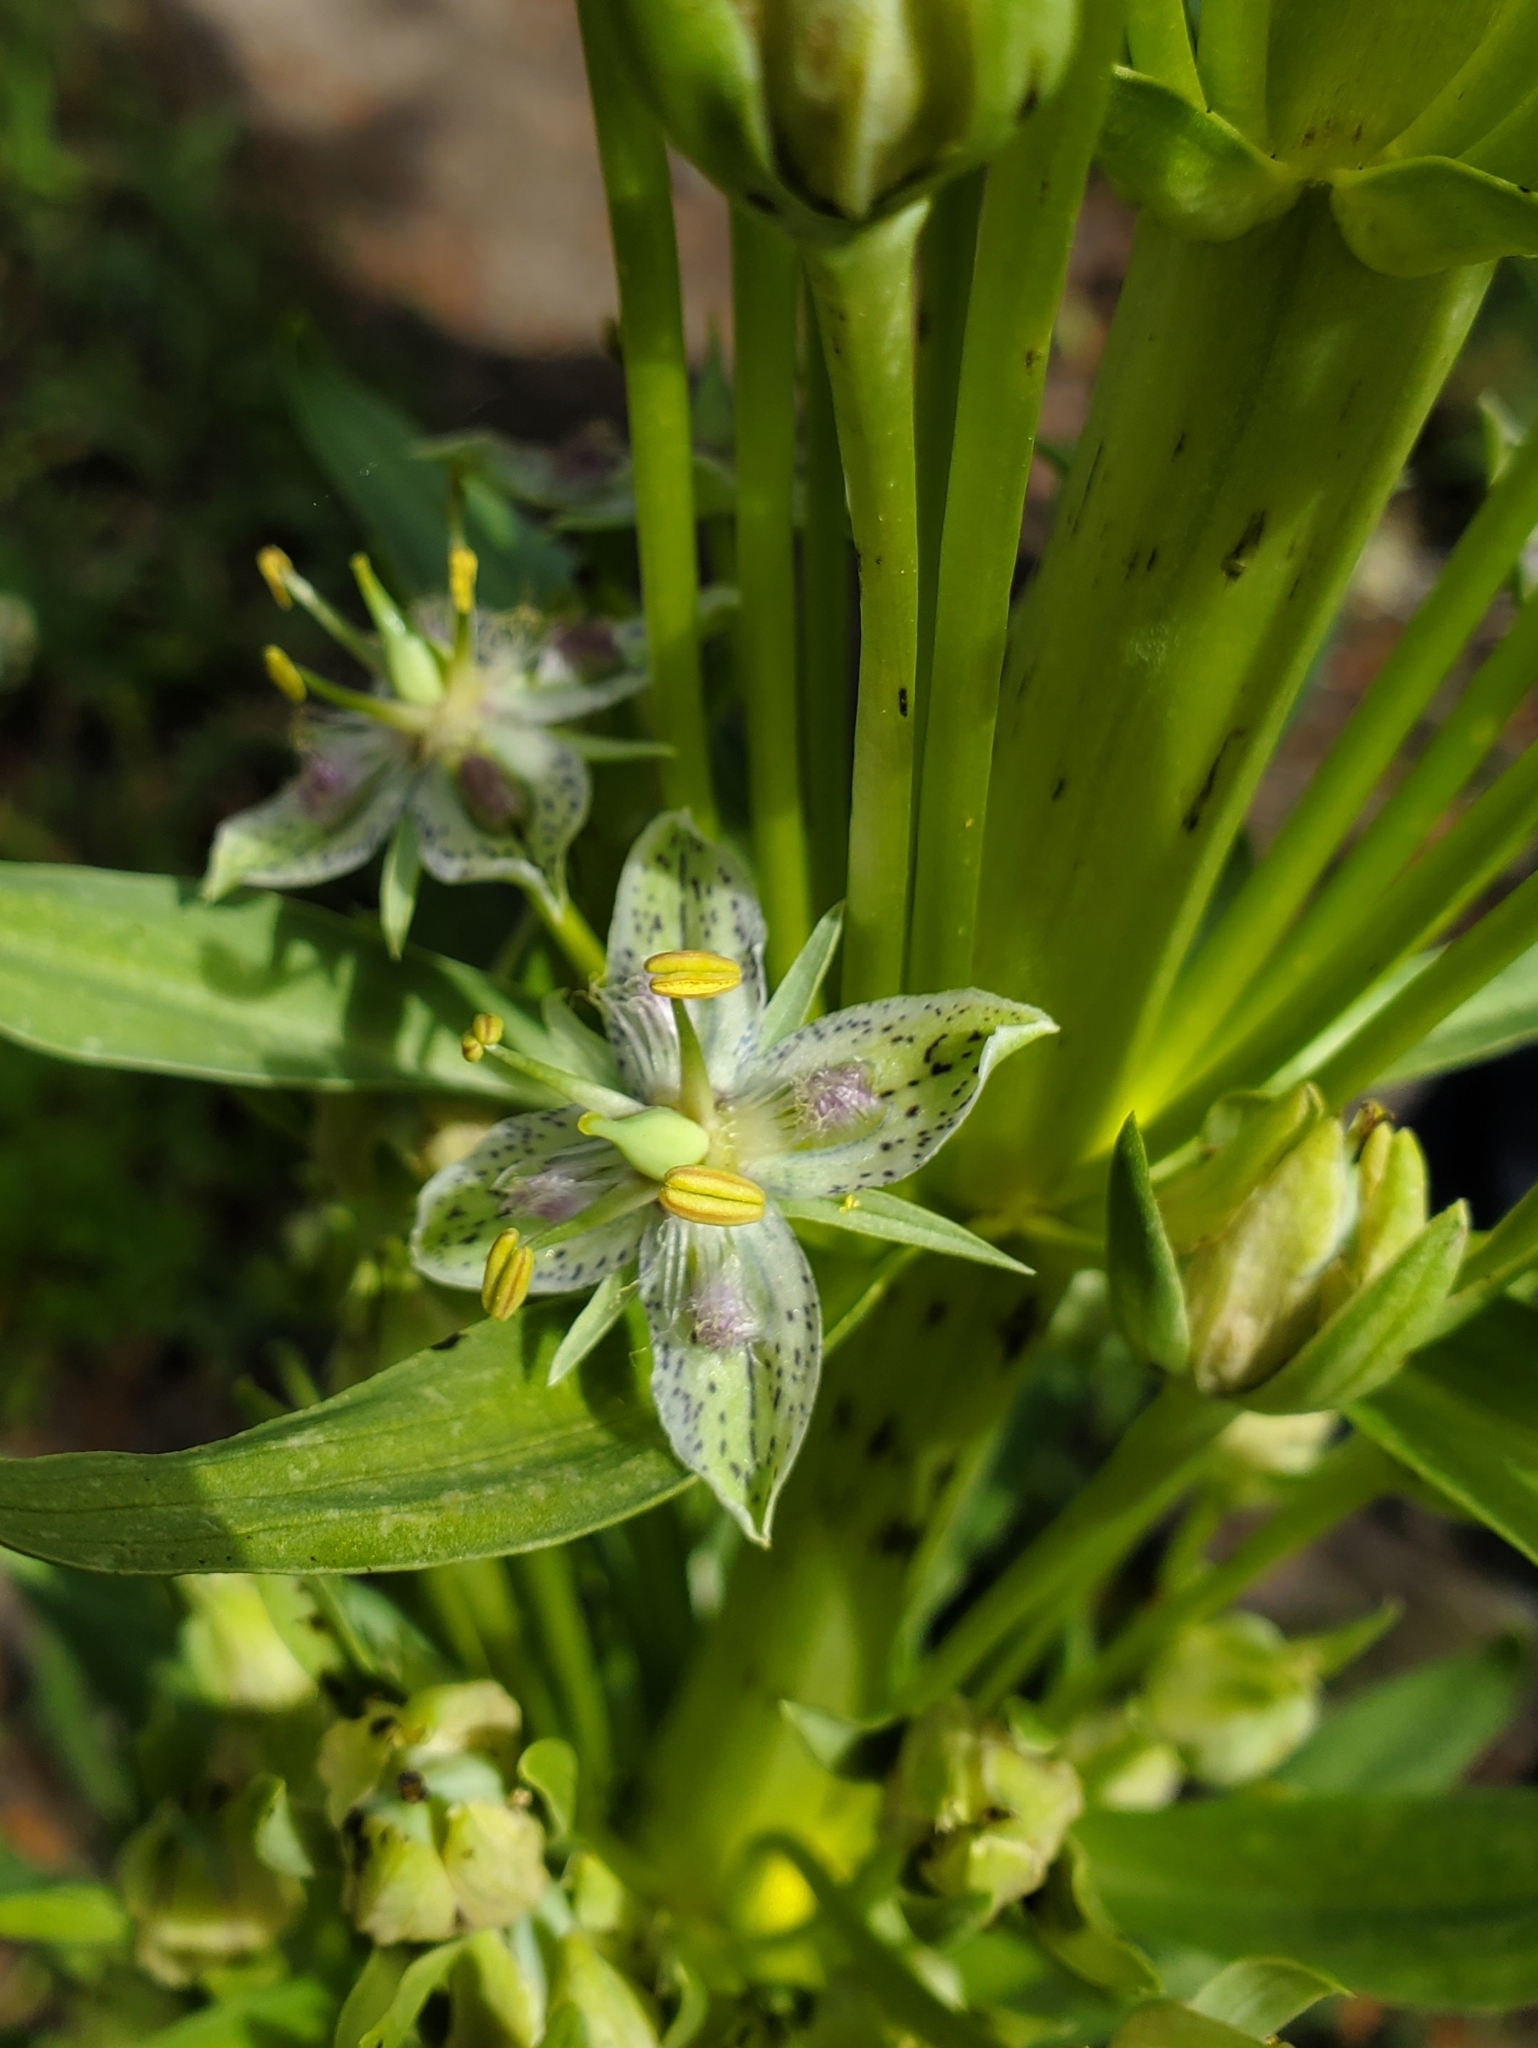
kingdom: Plantae
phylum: Tracheophyta
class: Magnoliopsida
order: Gentianales
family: Gentianaceae
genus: Frasera
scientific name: Frasera speciosa
